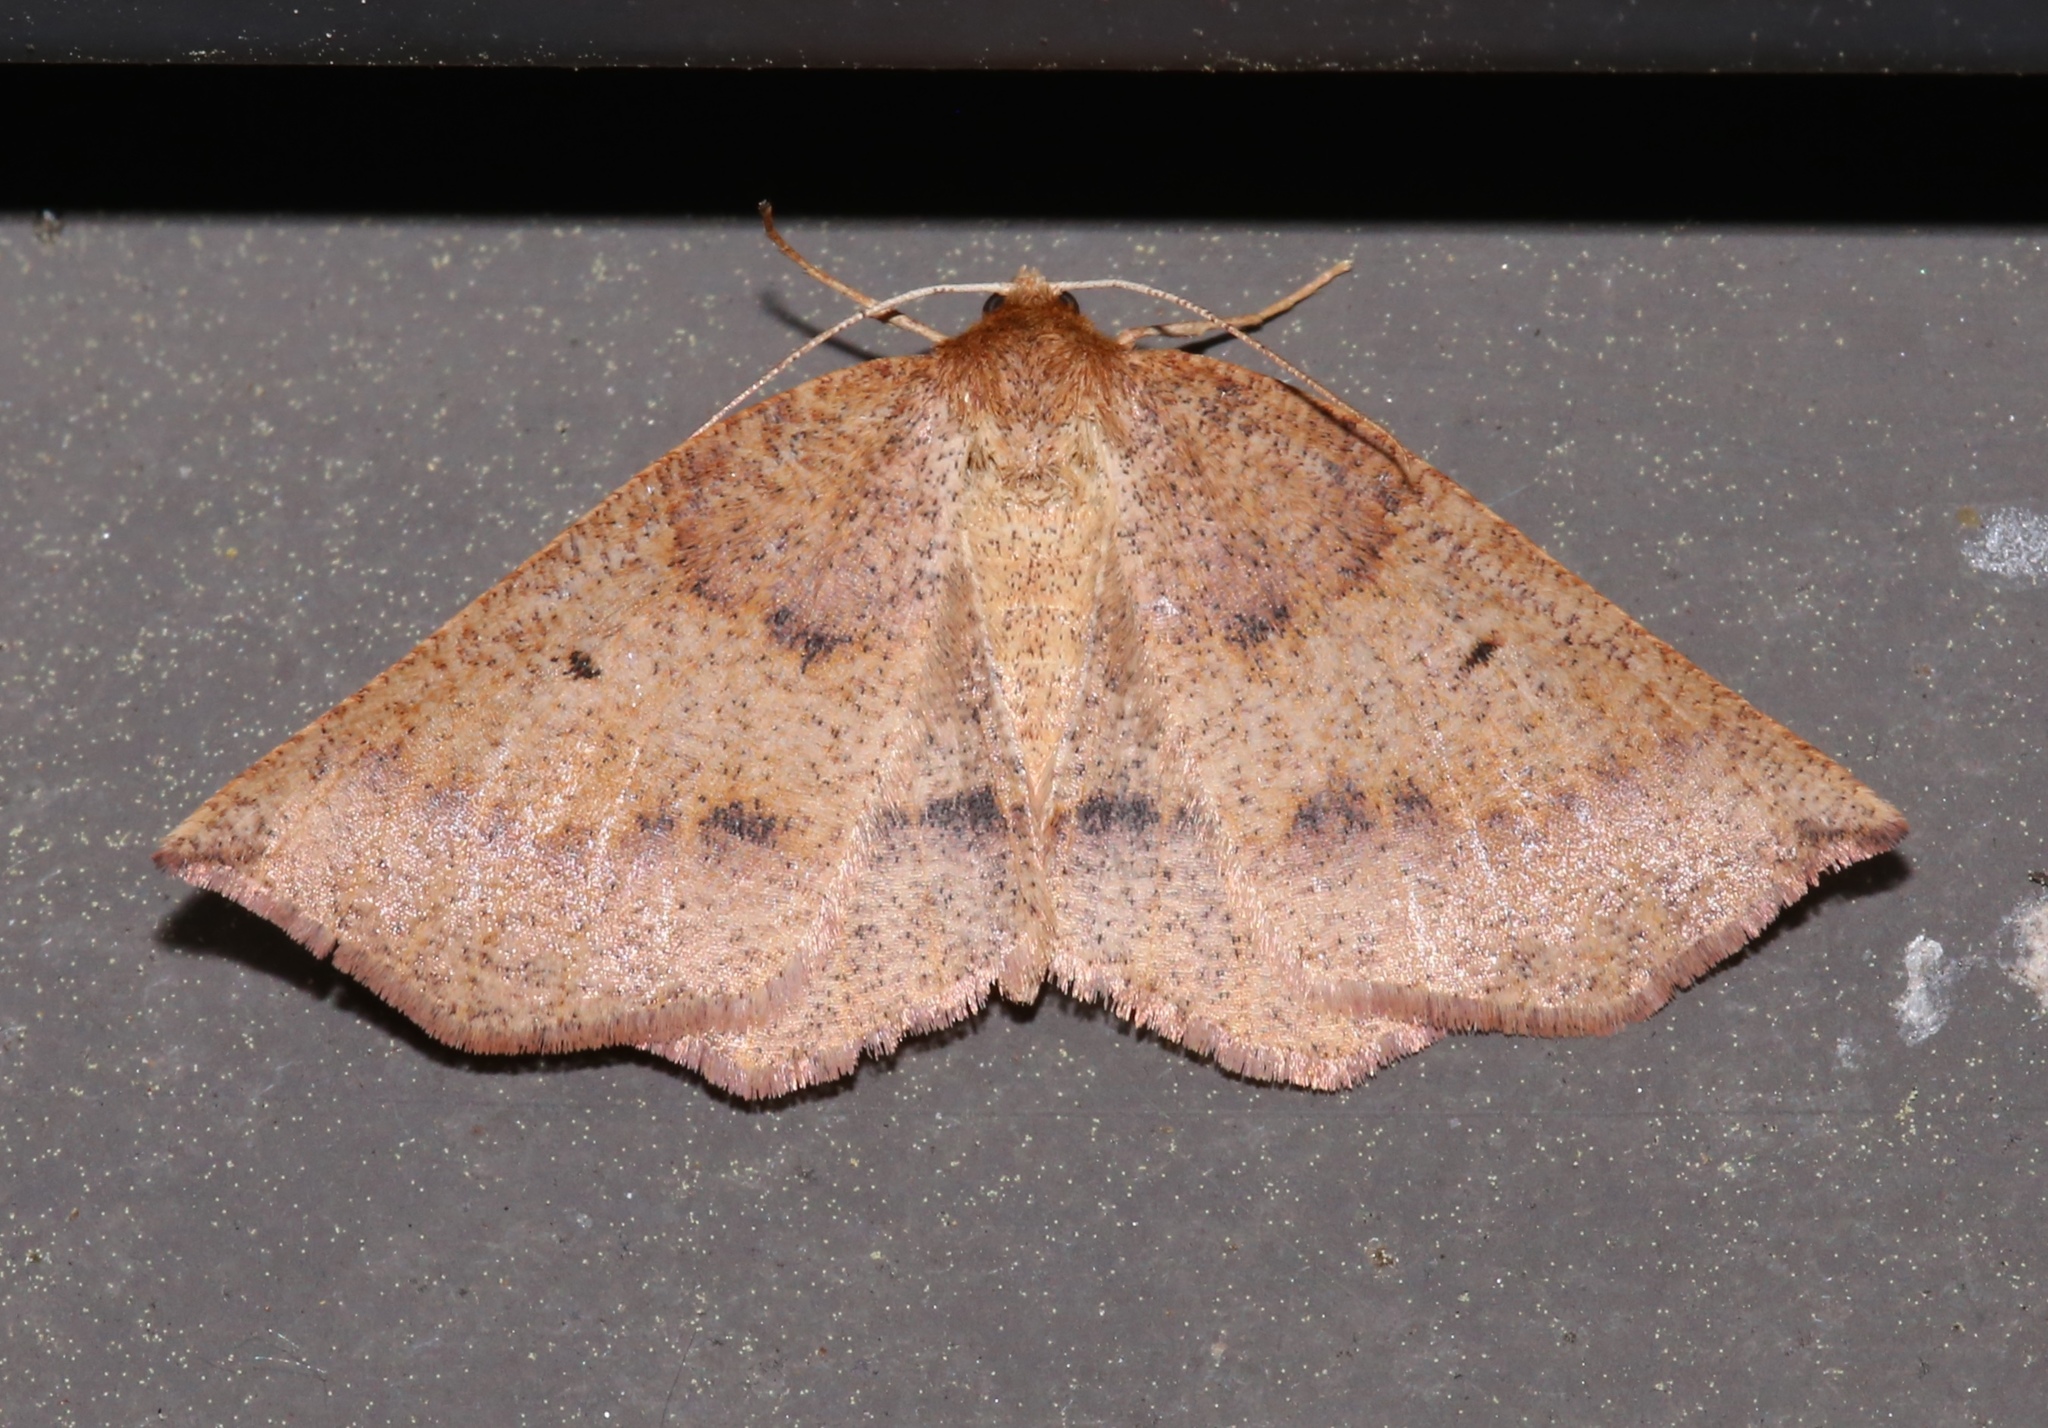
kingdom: Animalia
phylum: Arthropoda
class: Insecta
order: Lepidoptera
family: Geometridae
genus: Metarranthis
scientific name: Metarranthis duaria
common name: Ruddy metarranthis moth
